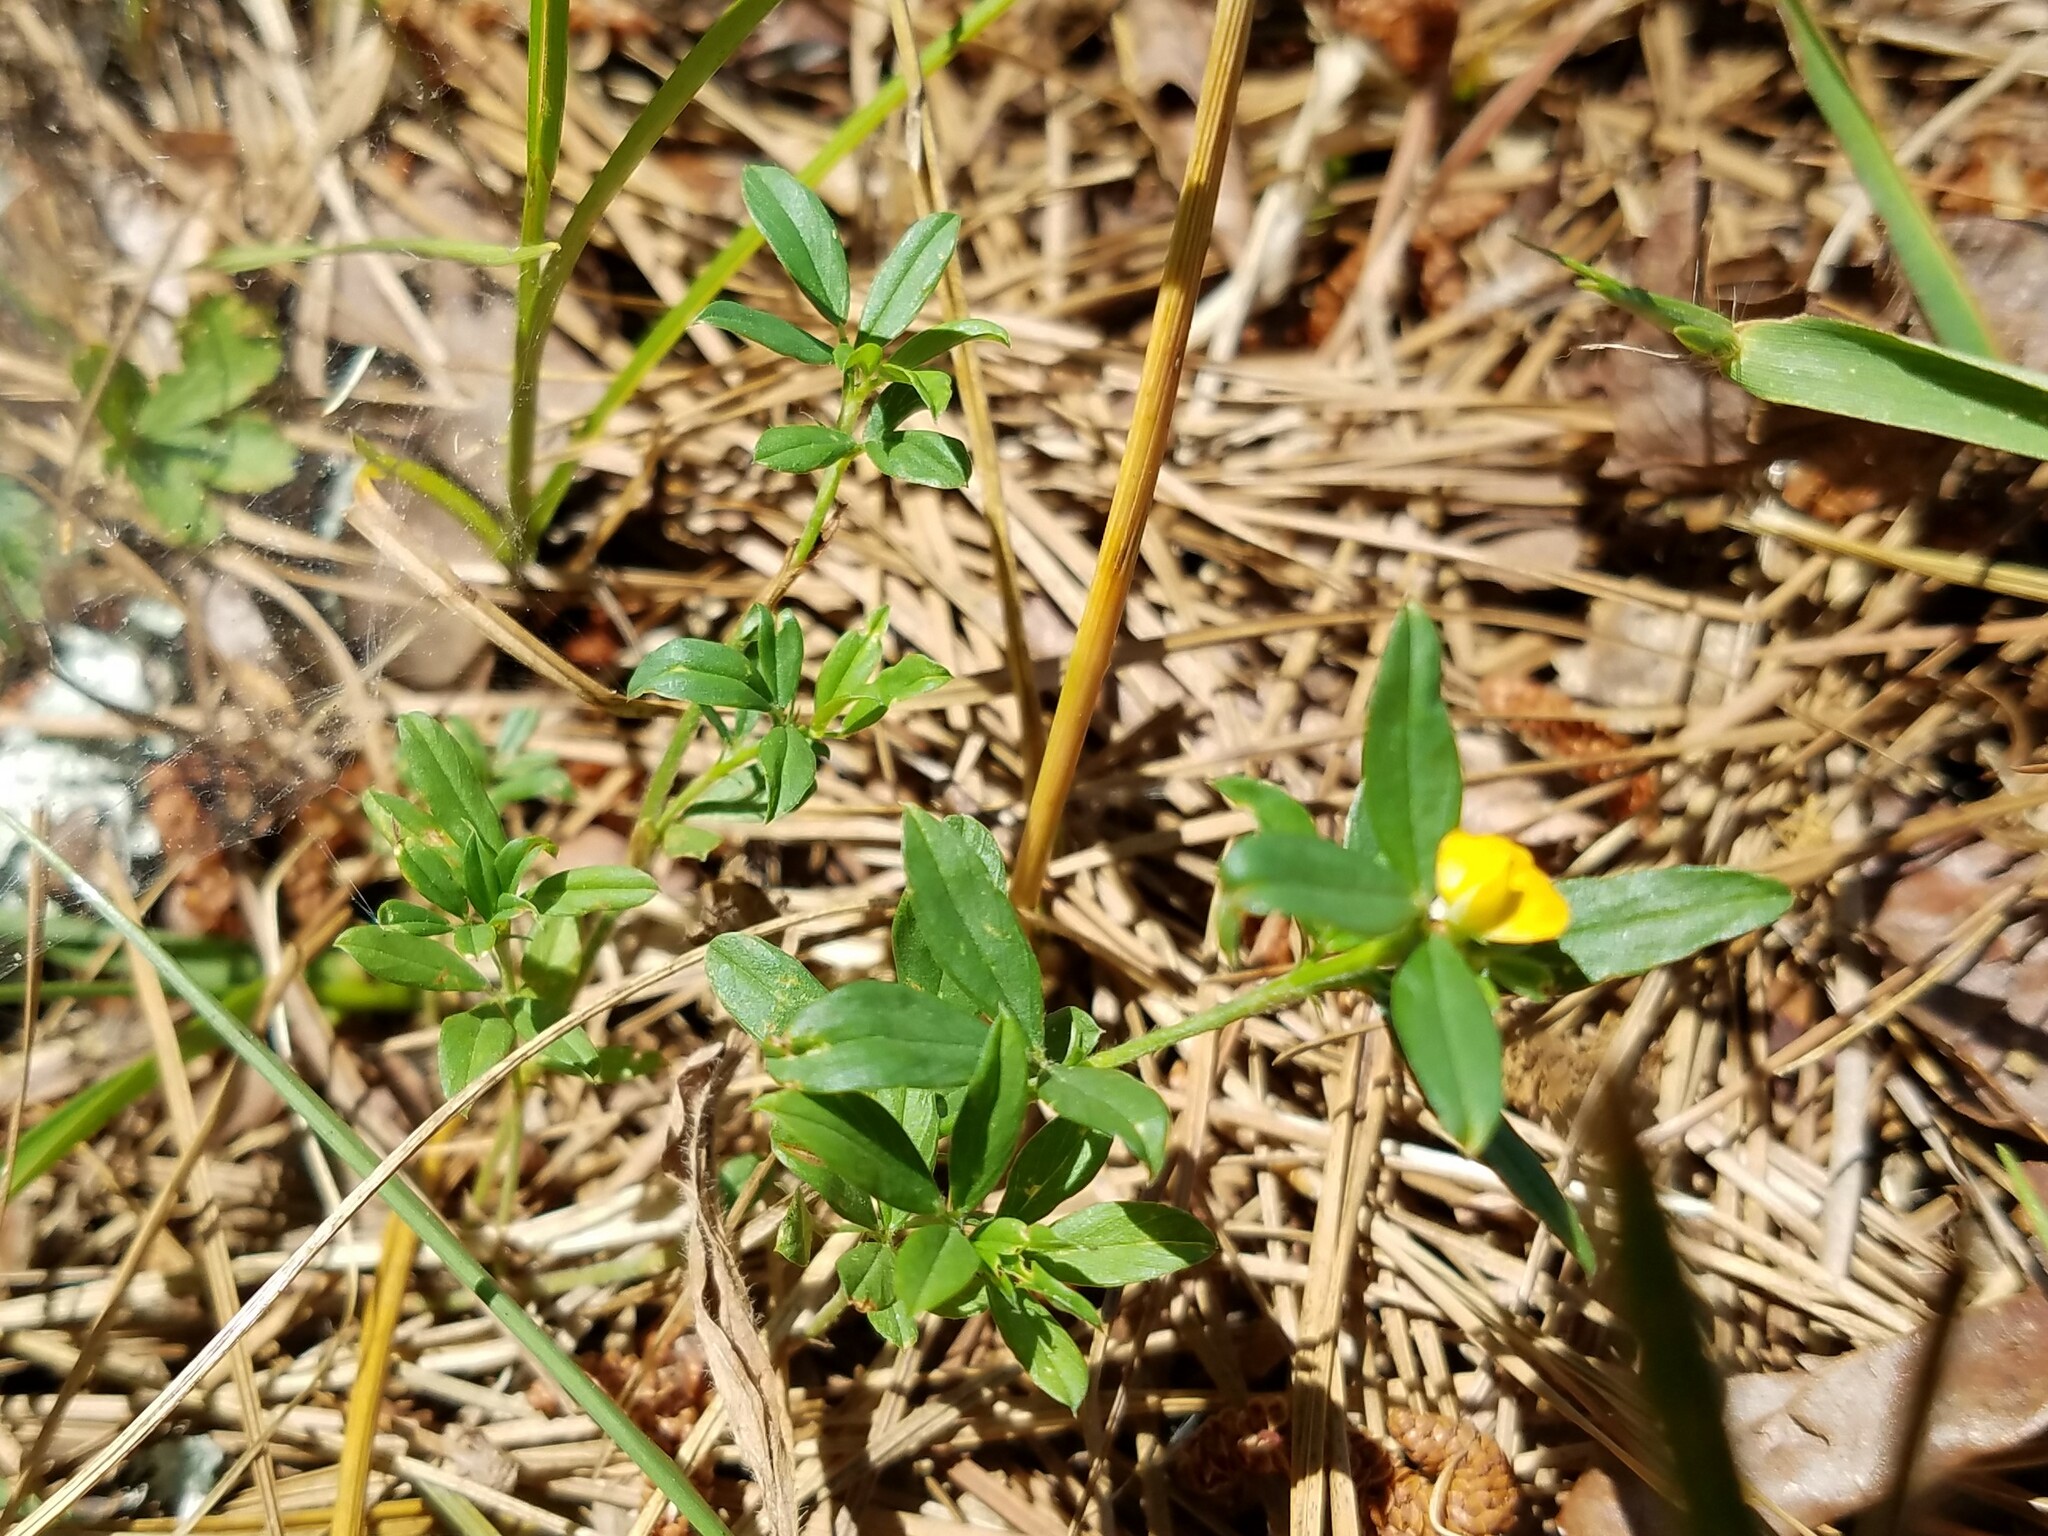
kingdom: Plantae
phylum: Tracheophyta
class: Magnoliopsida
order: Fabales
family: Fabaceae
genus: Stylosanthes
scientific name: Stylosanthes biflora
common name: Two-flower pencil-flower
